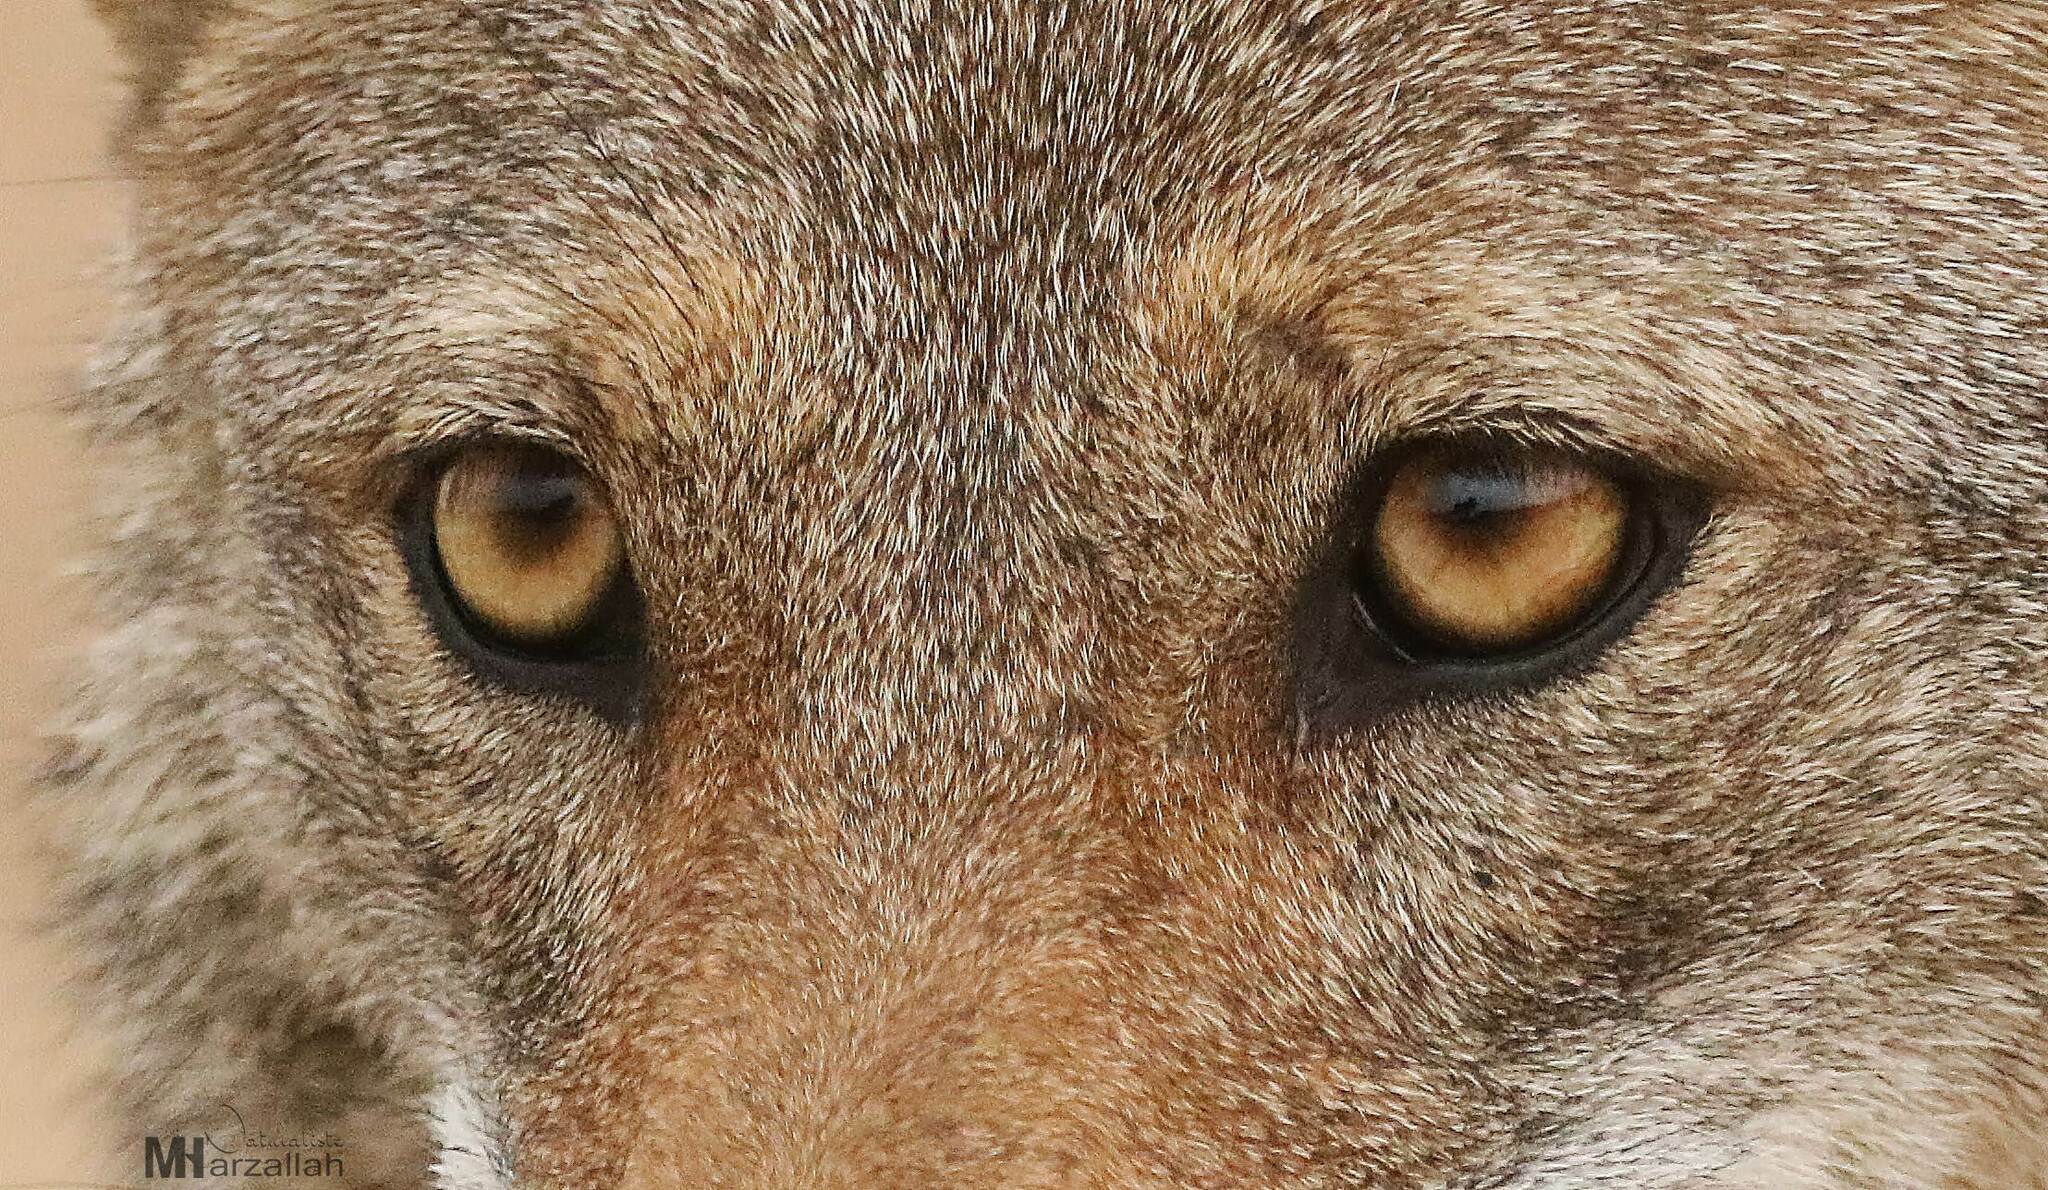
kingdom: Animalia
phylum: Chordata
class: Mammalia
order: Carnivora
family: Canidae
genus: Canis
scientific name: Canis lupaster
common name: African golden wolf
